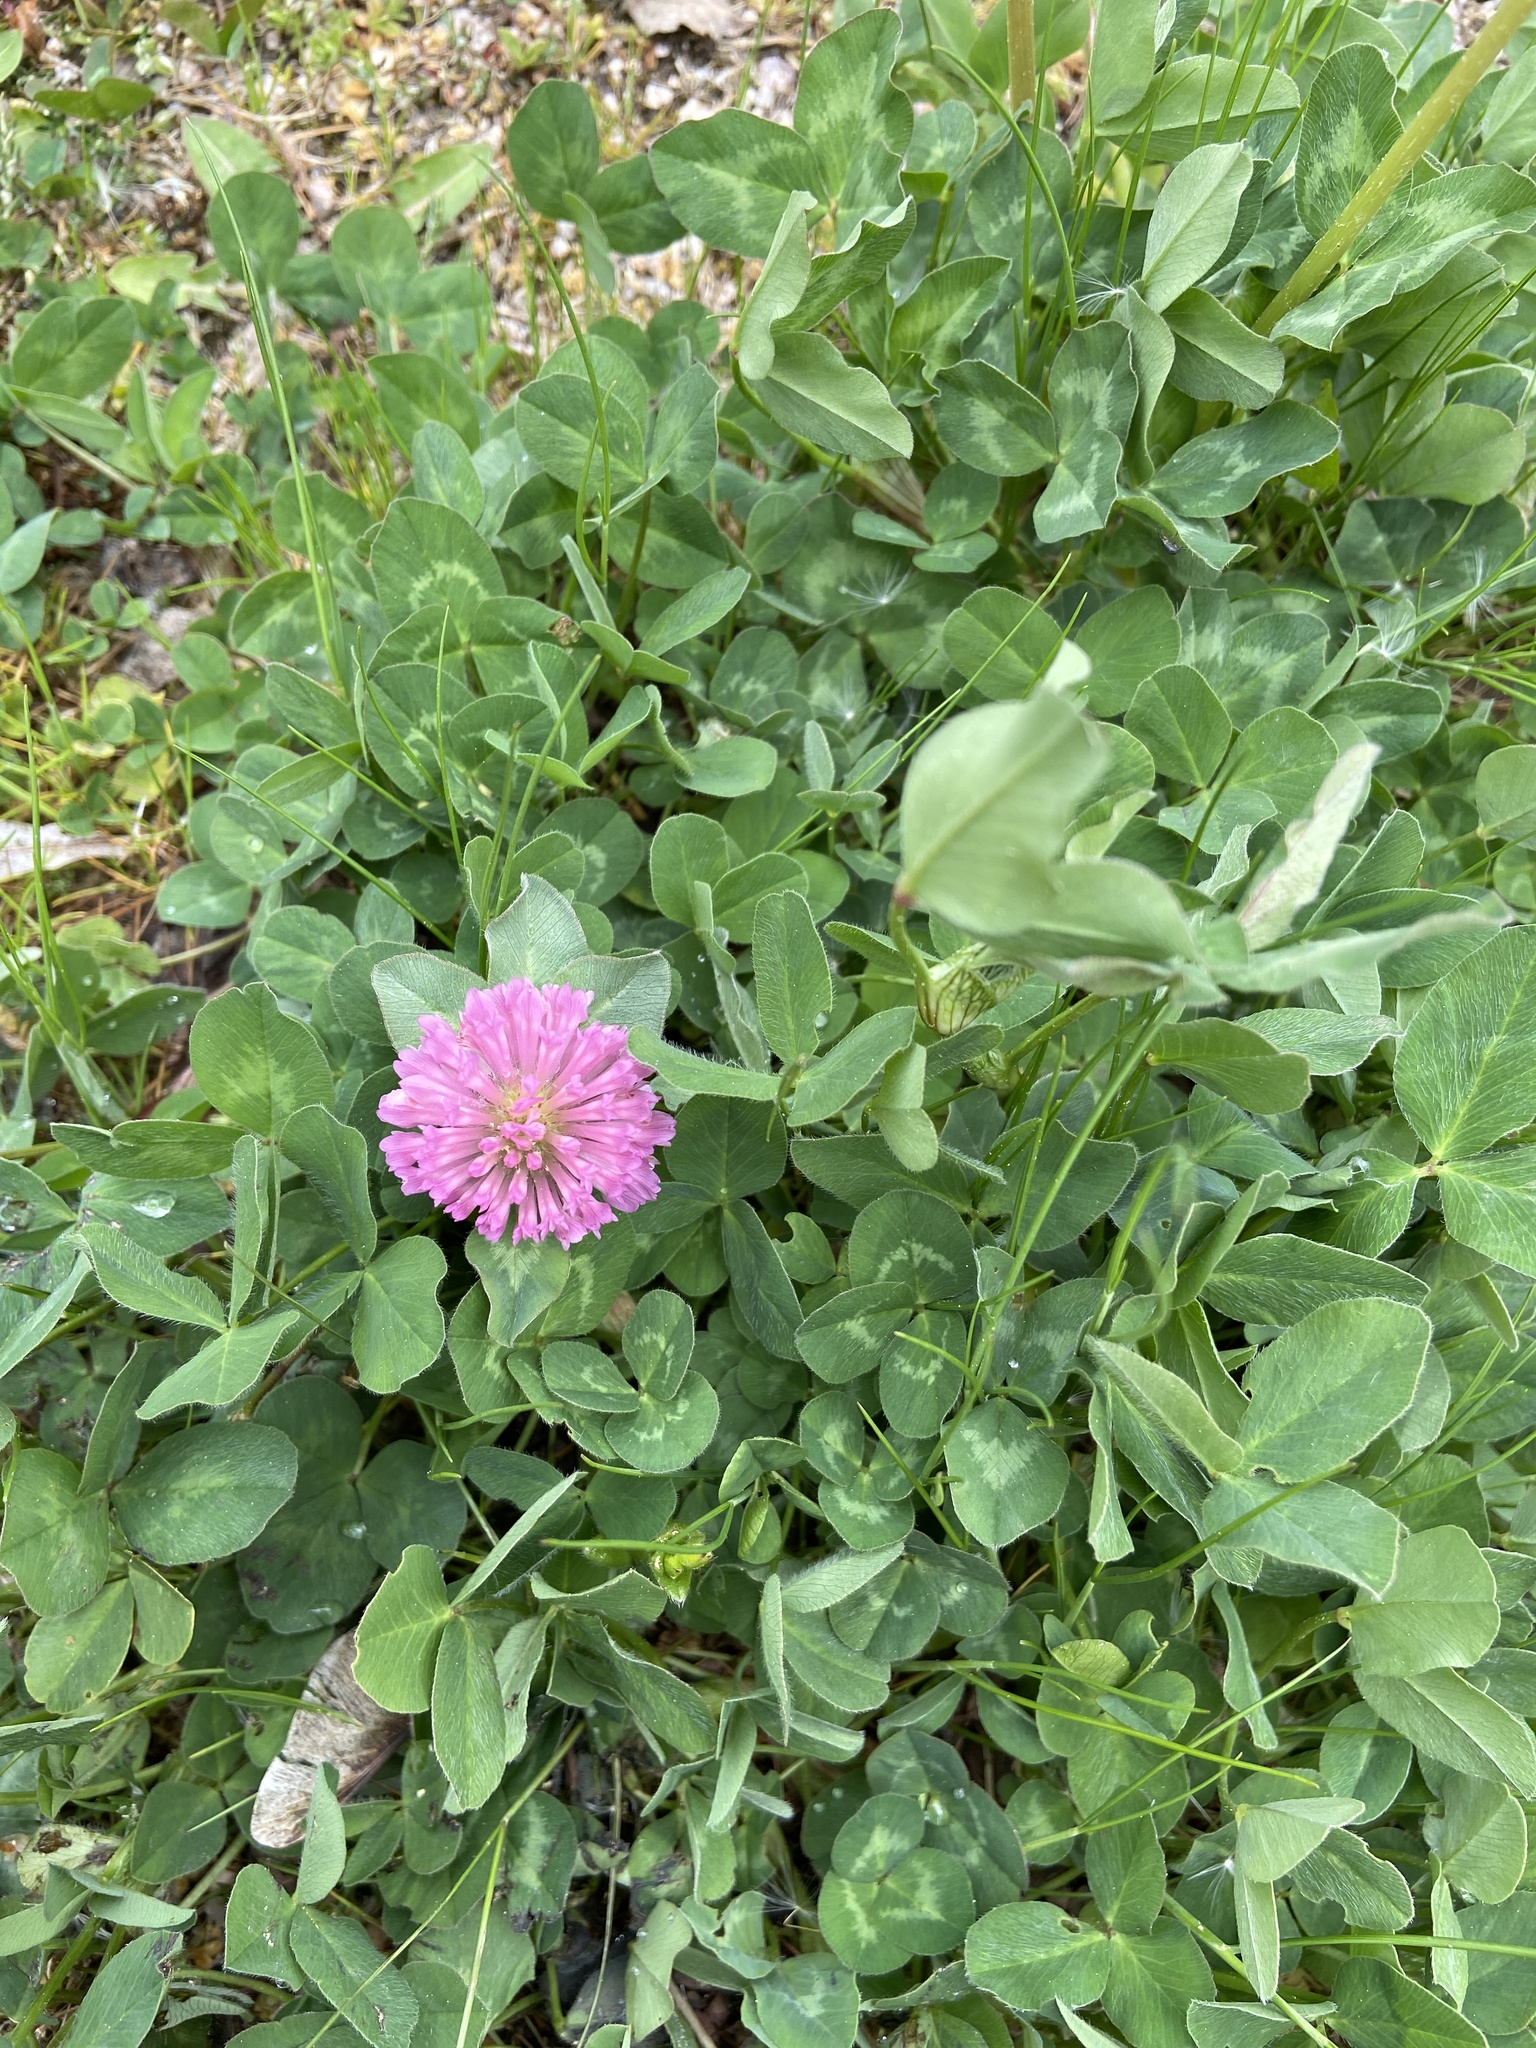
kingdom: Plantae
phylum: Tracheophyta
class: Magnoliopsida
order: Fabales
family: Fabaceae
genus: Trifolium
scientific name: Trifolium pratense
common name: Red clover
